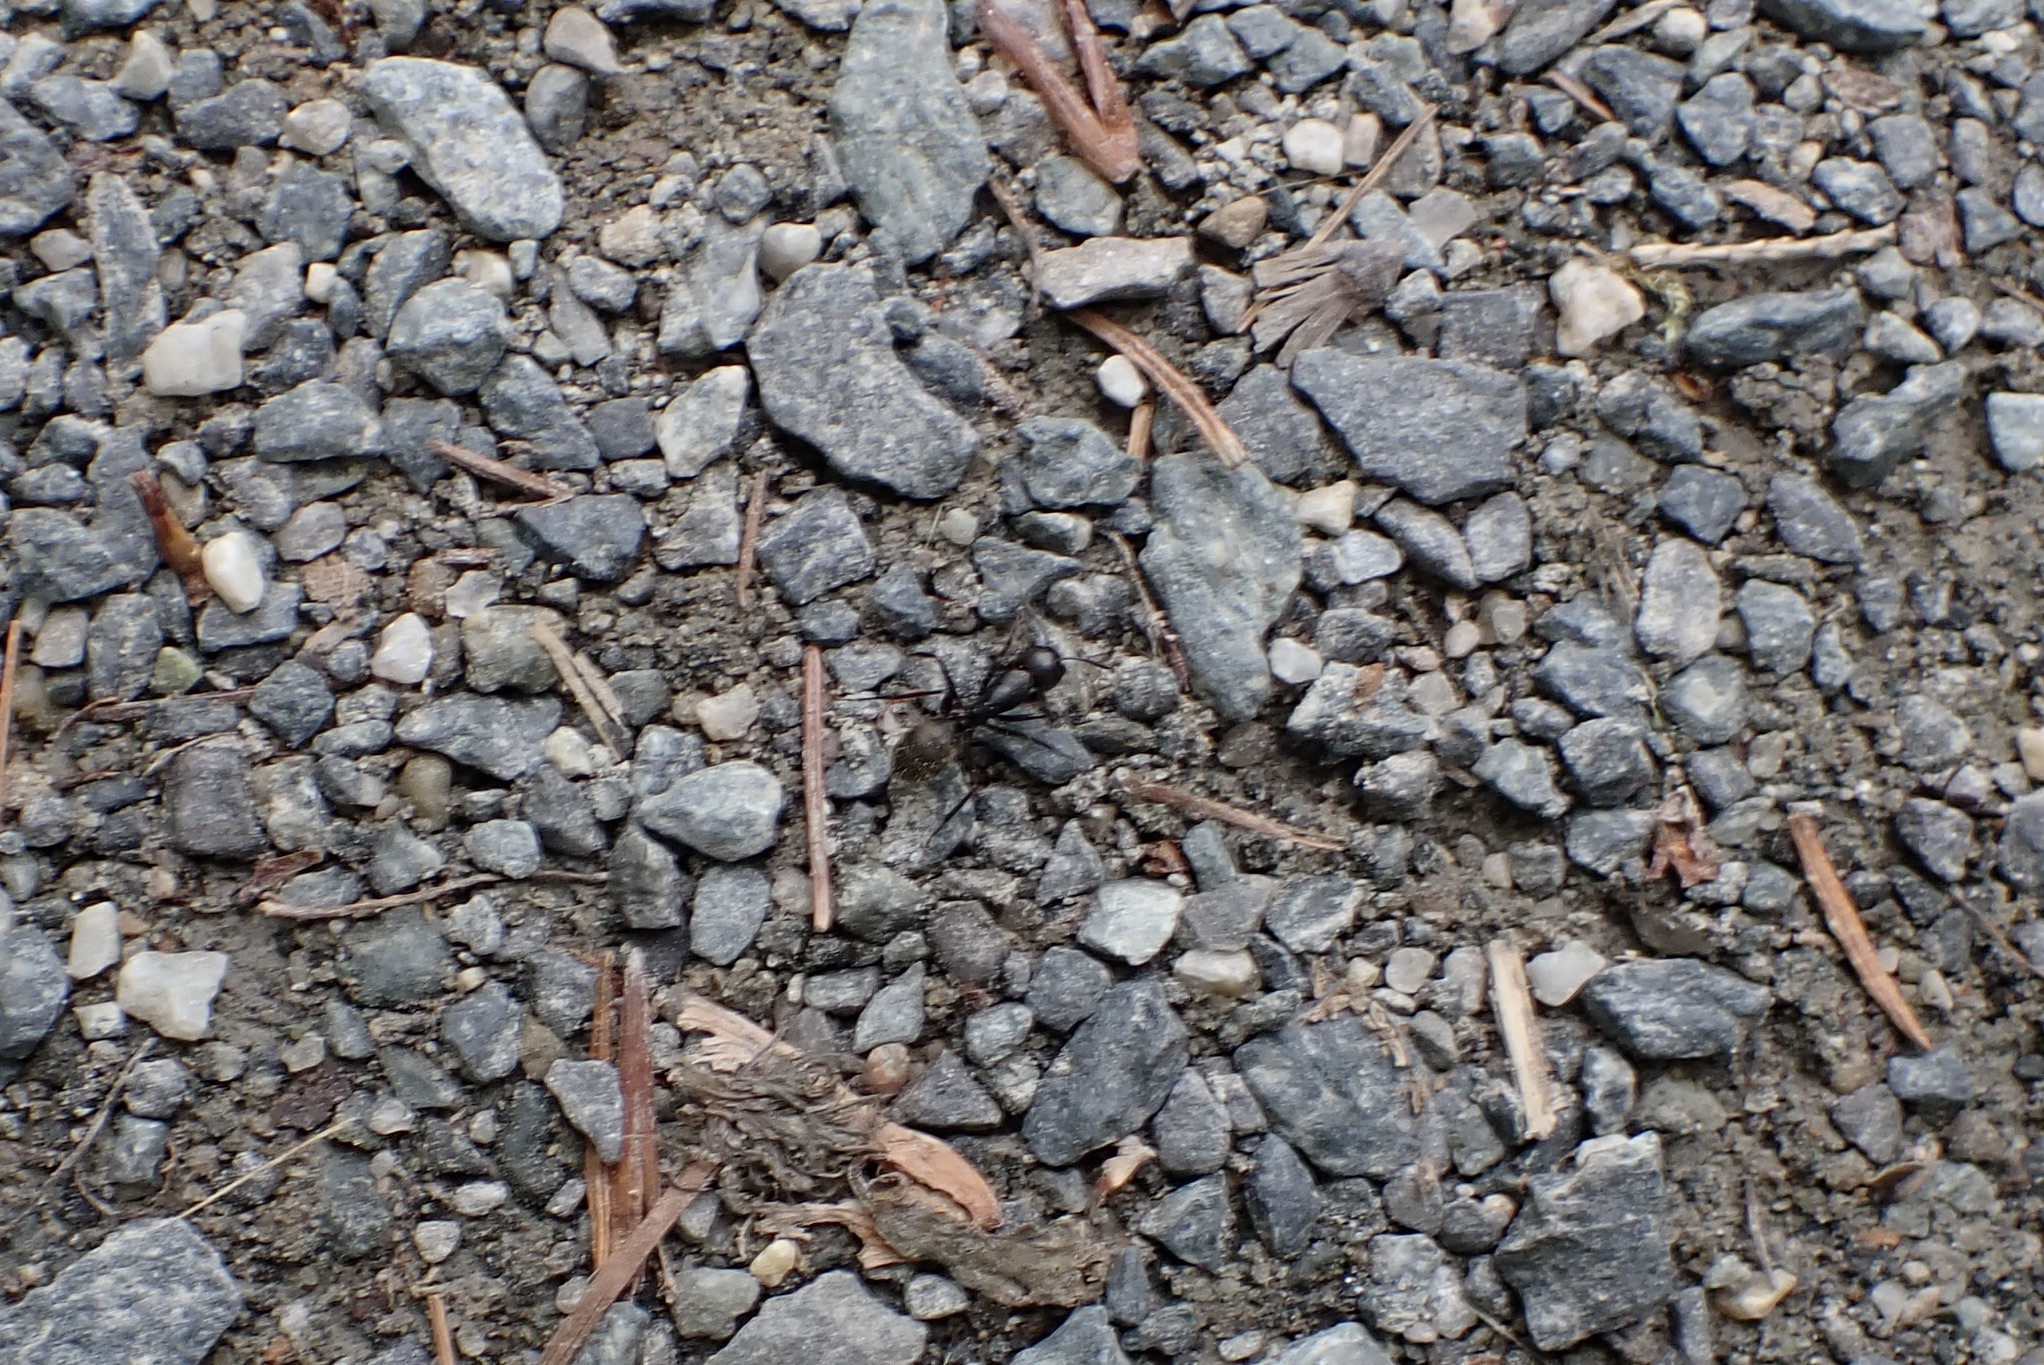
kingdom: Animalia
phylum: Arthropoda
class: Insecta
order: Hymenoptera
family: Formicidae
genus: Camponotus
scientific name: Camponotus pennsylvanicus
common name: Black carpenter ant
